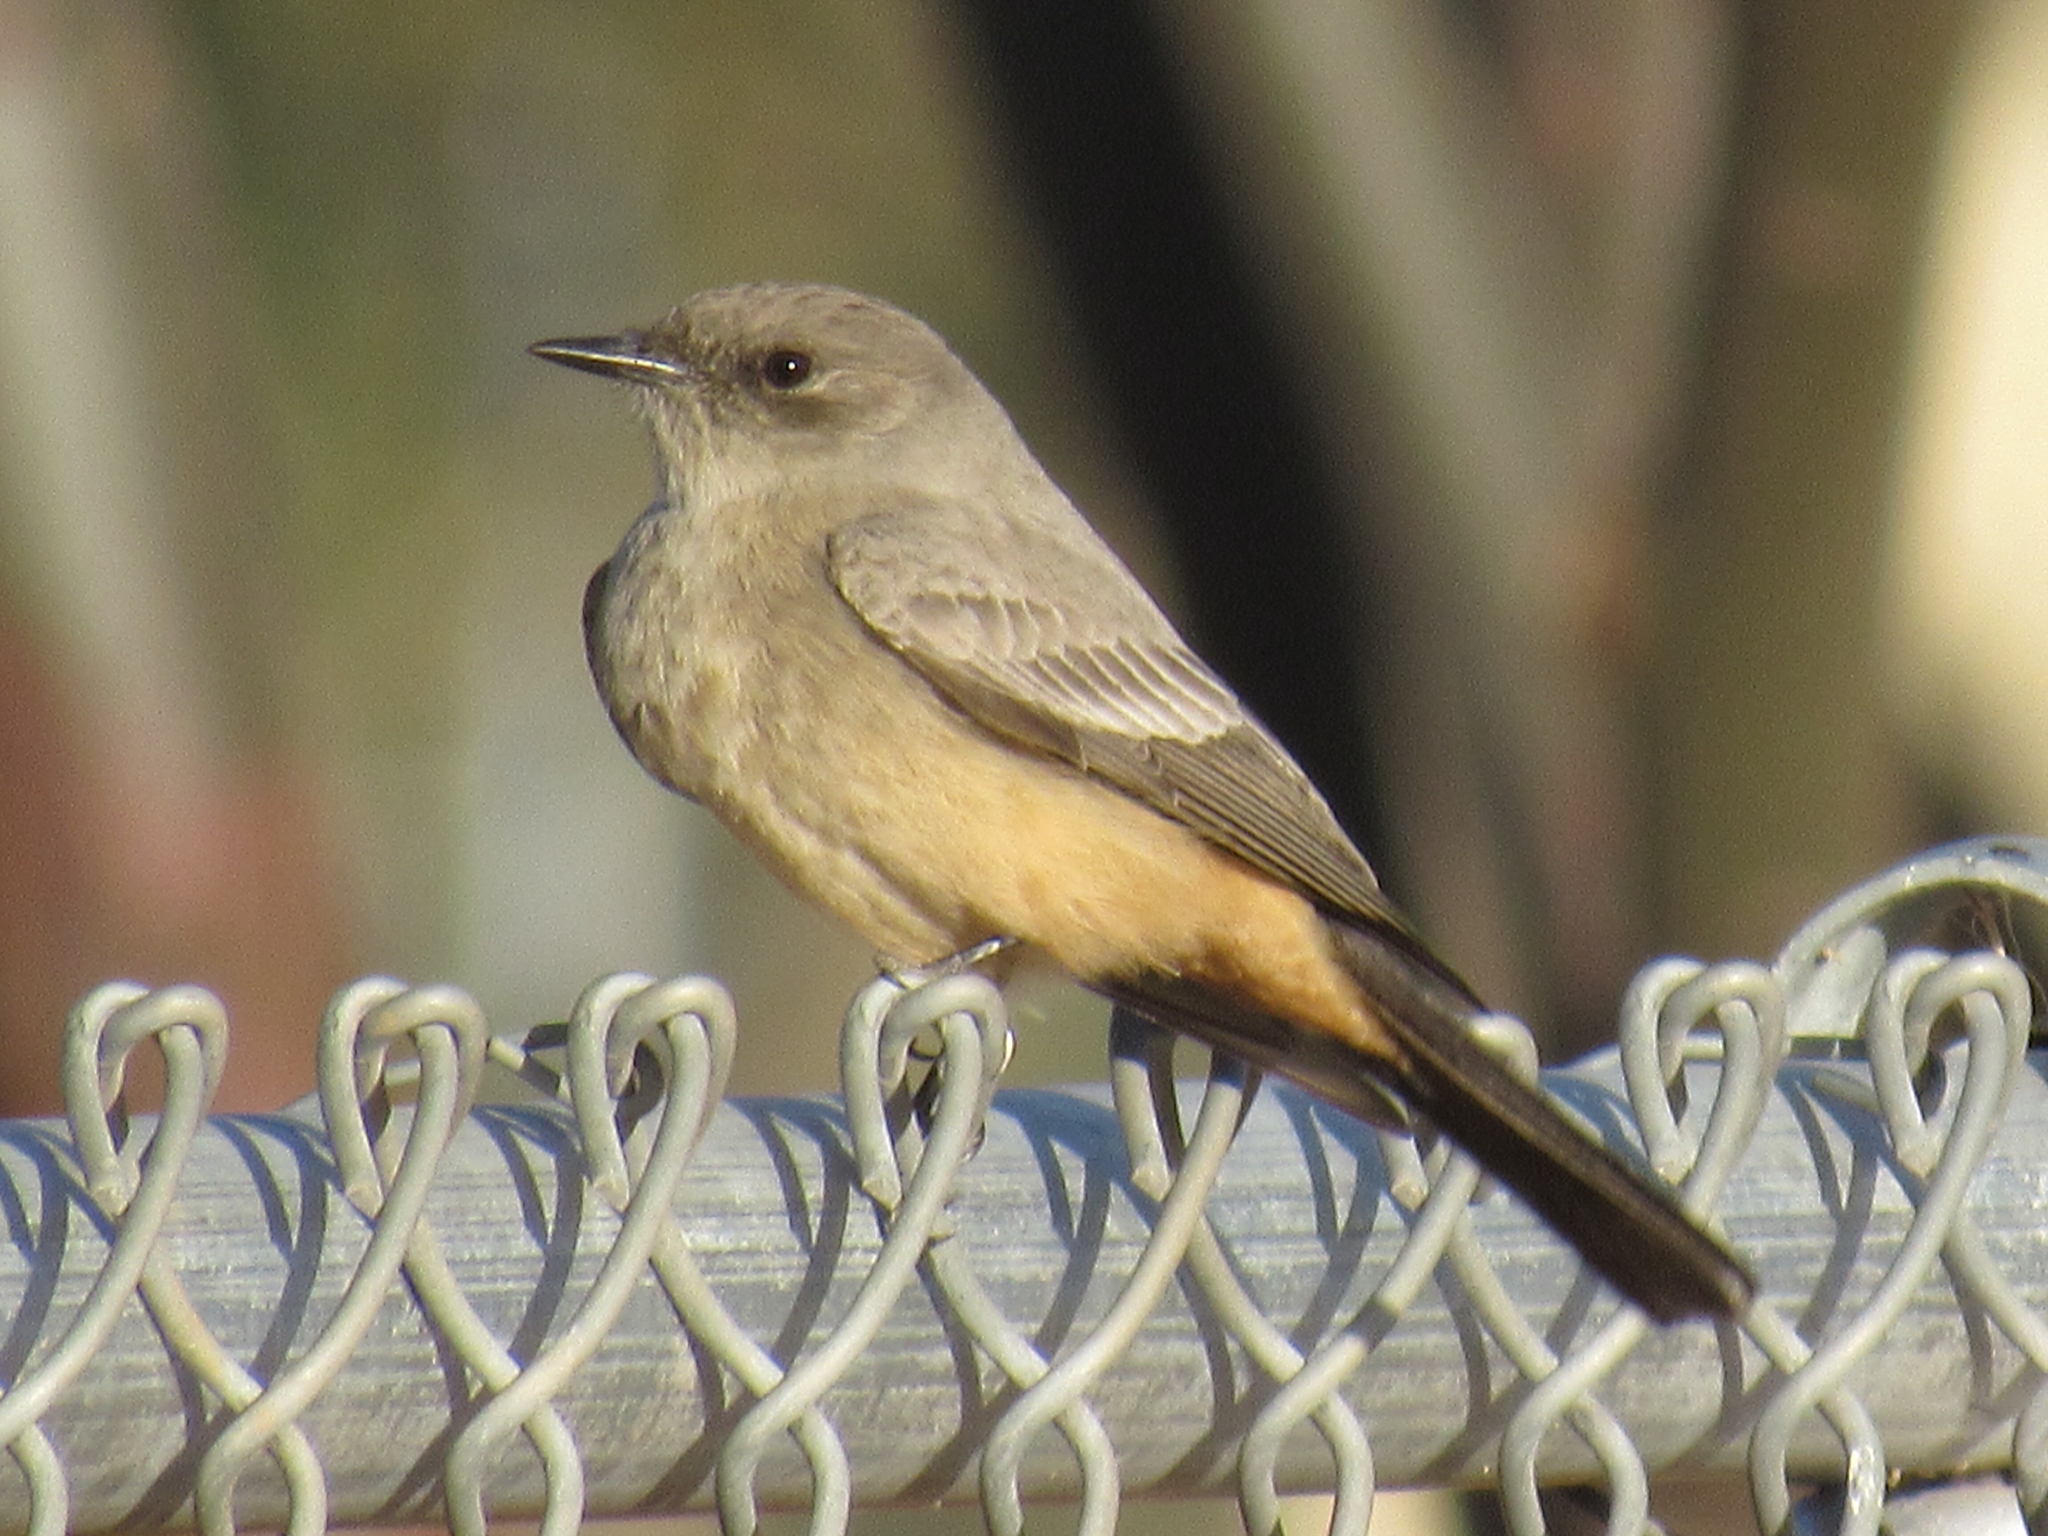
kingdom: Animalia
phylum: Chordata
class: Aves
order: Passeriformes
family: Tyrannidae
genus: Sayornis
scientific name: Sayornis saya
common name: Say's phoebe
